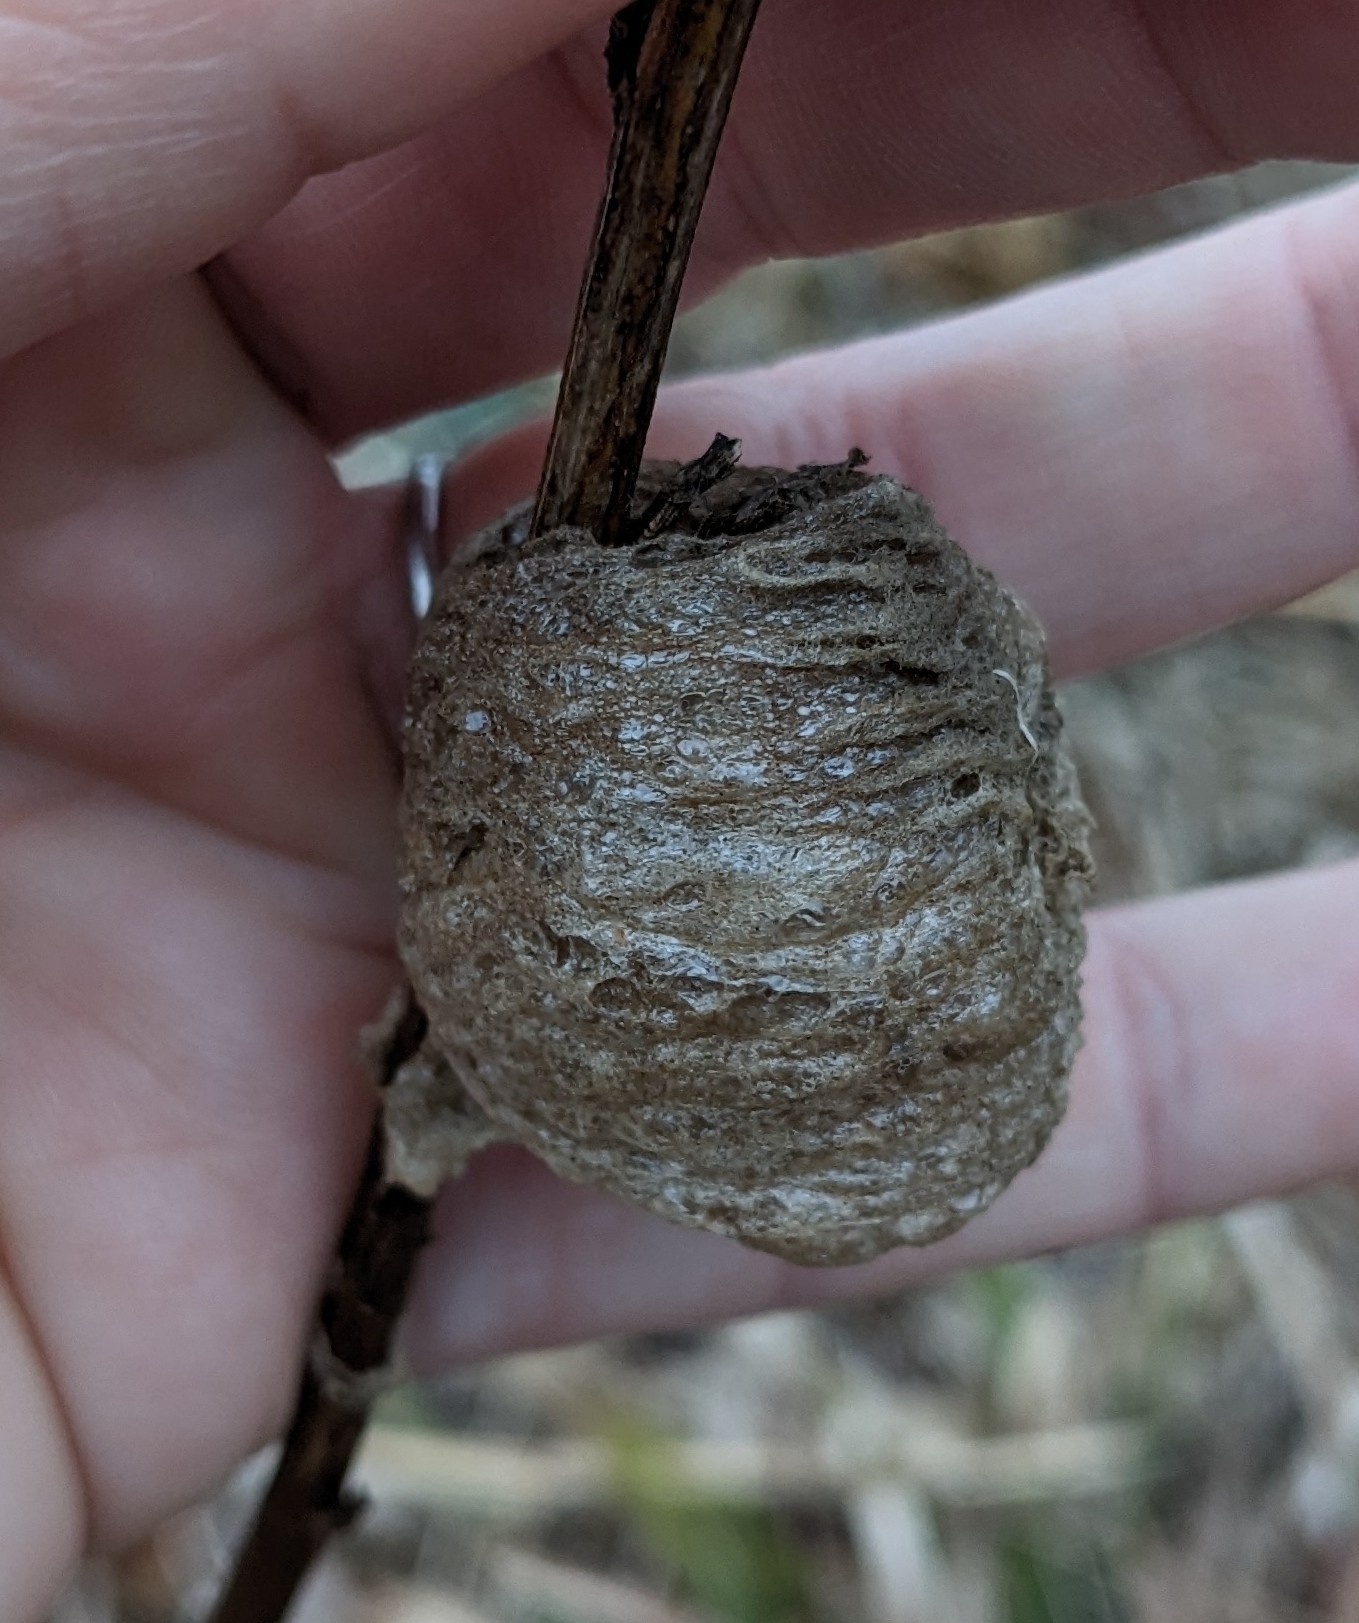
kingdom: Animalia
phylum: Arthropoda
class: Insecta
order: Mantodea
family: Mantidae
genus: Tenodera
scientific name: Tenodera sinensis
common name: Chinese mantis
